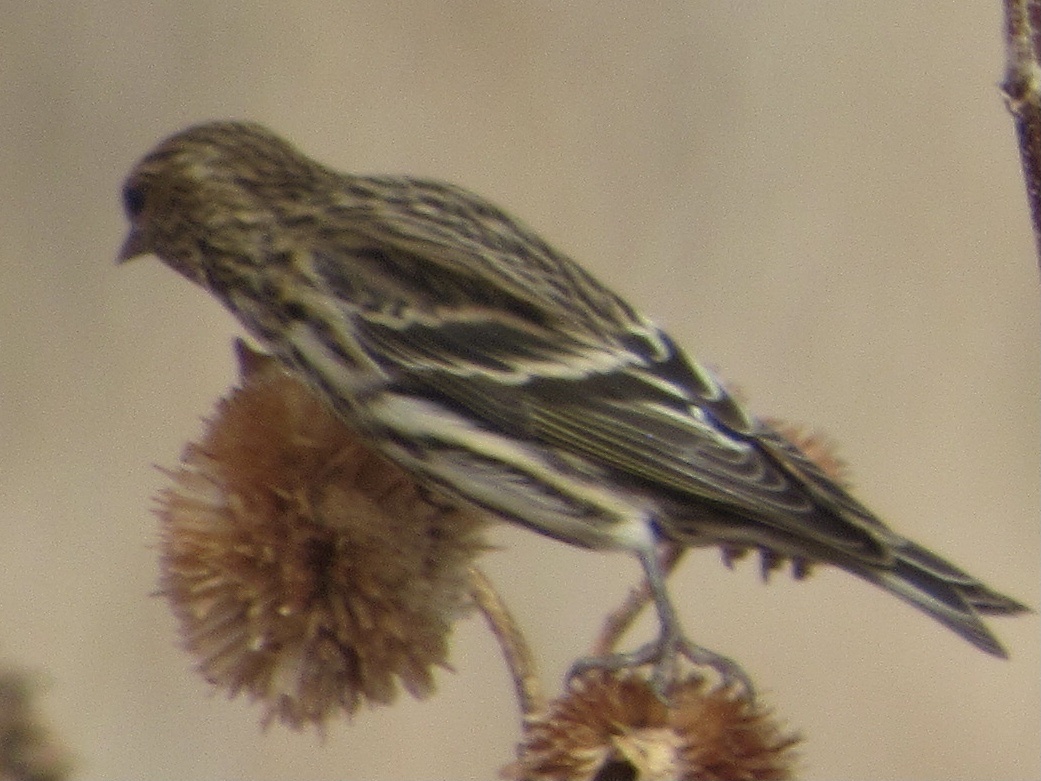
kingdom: Animalia
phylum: Chordata
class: Aves
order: Passeriformes
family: Fringillidae
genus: Spinus
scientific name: Spinus pinus
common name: Pine siskin
